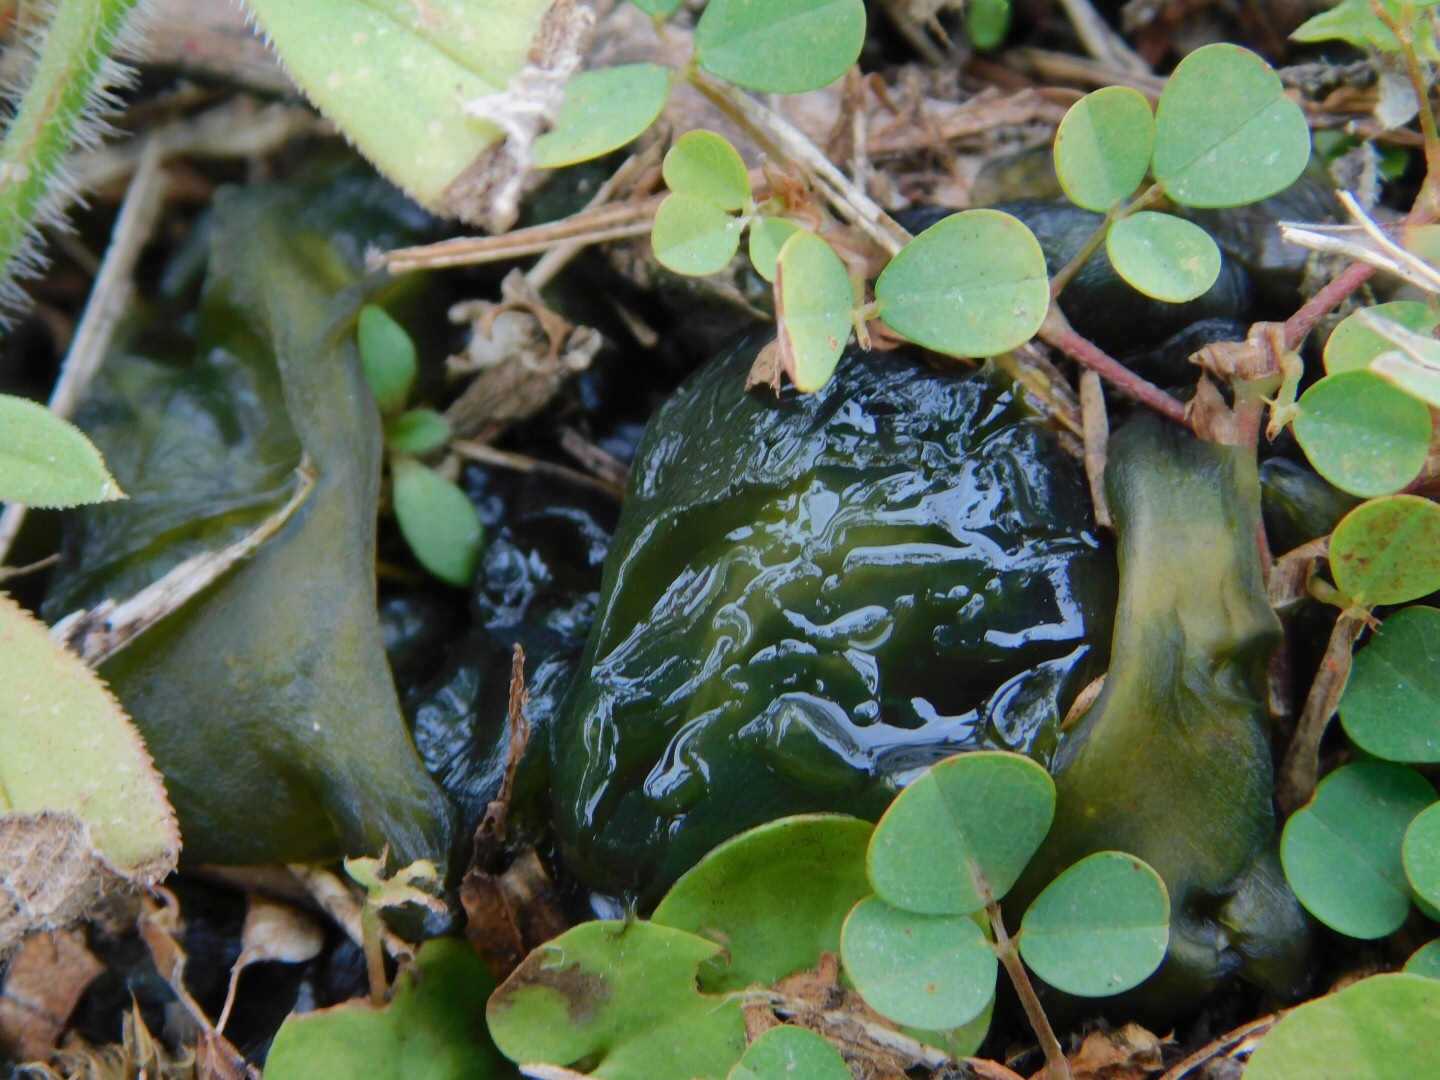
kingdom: Bacteria
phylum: Cyanobacteria
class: Cyanobacteriia
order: Cyanobacteriales
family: Nostocaceae
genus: Nostoc
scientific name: Nostoc commune
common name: Star jelly
